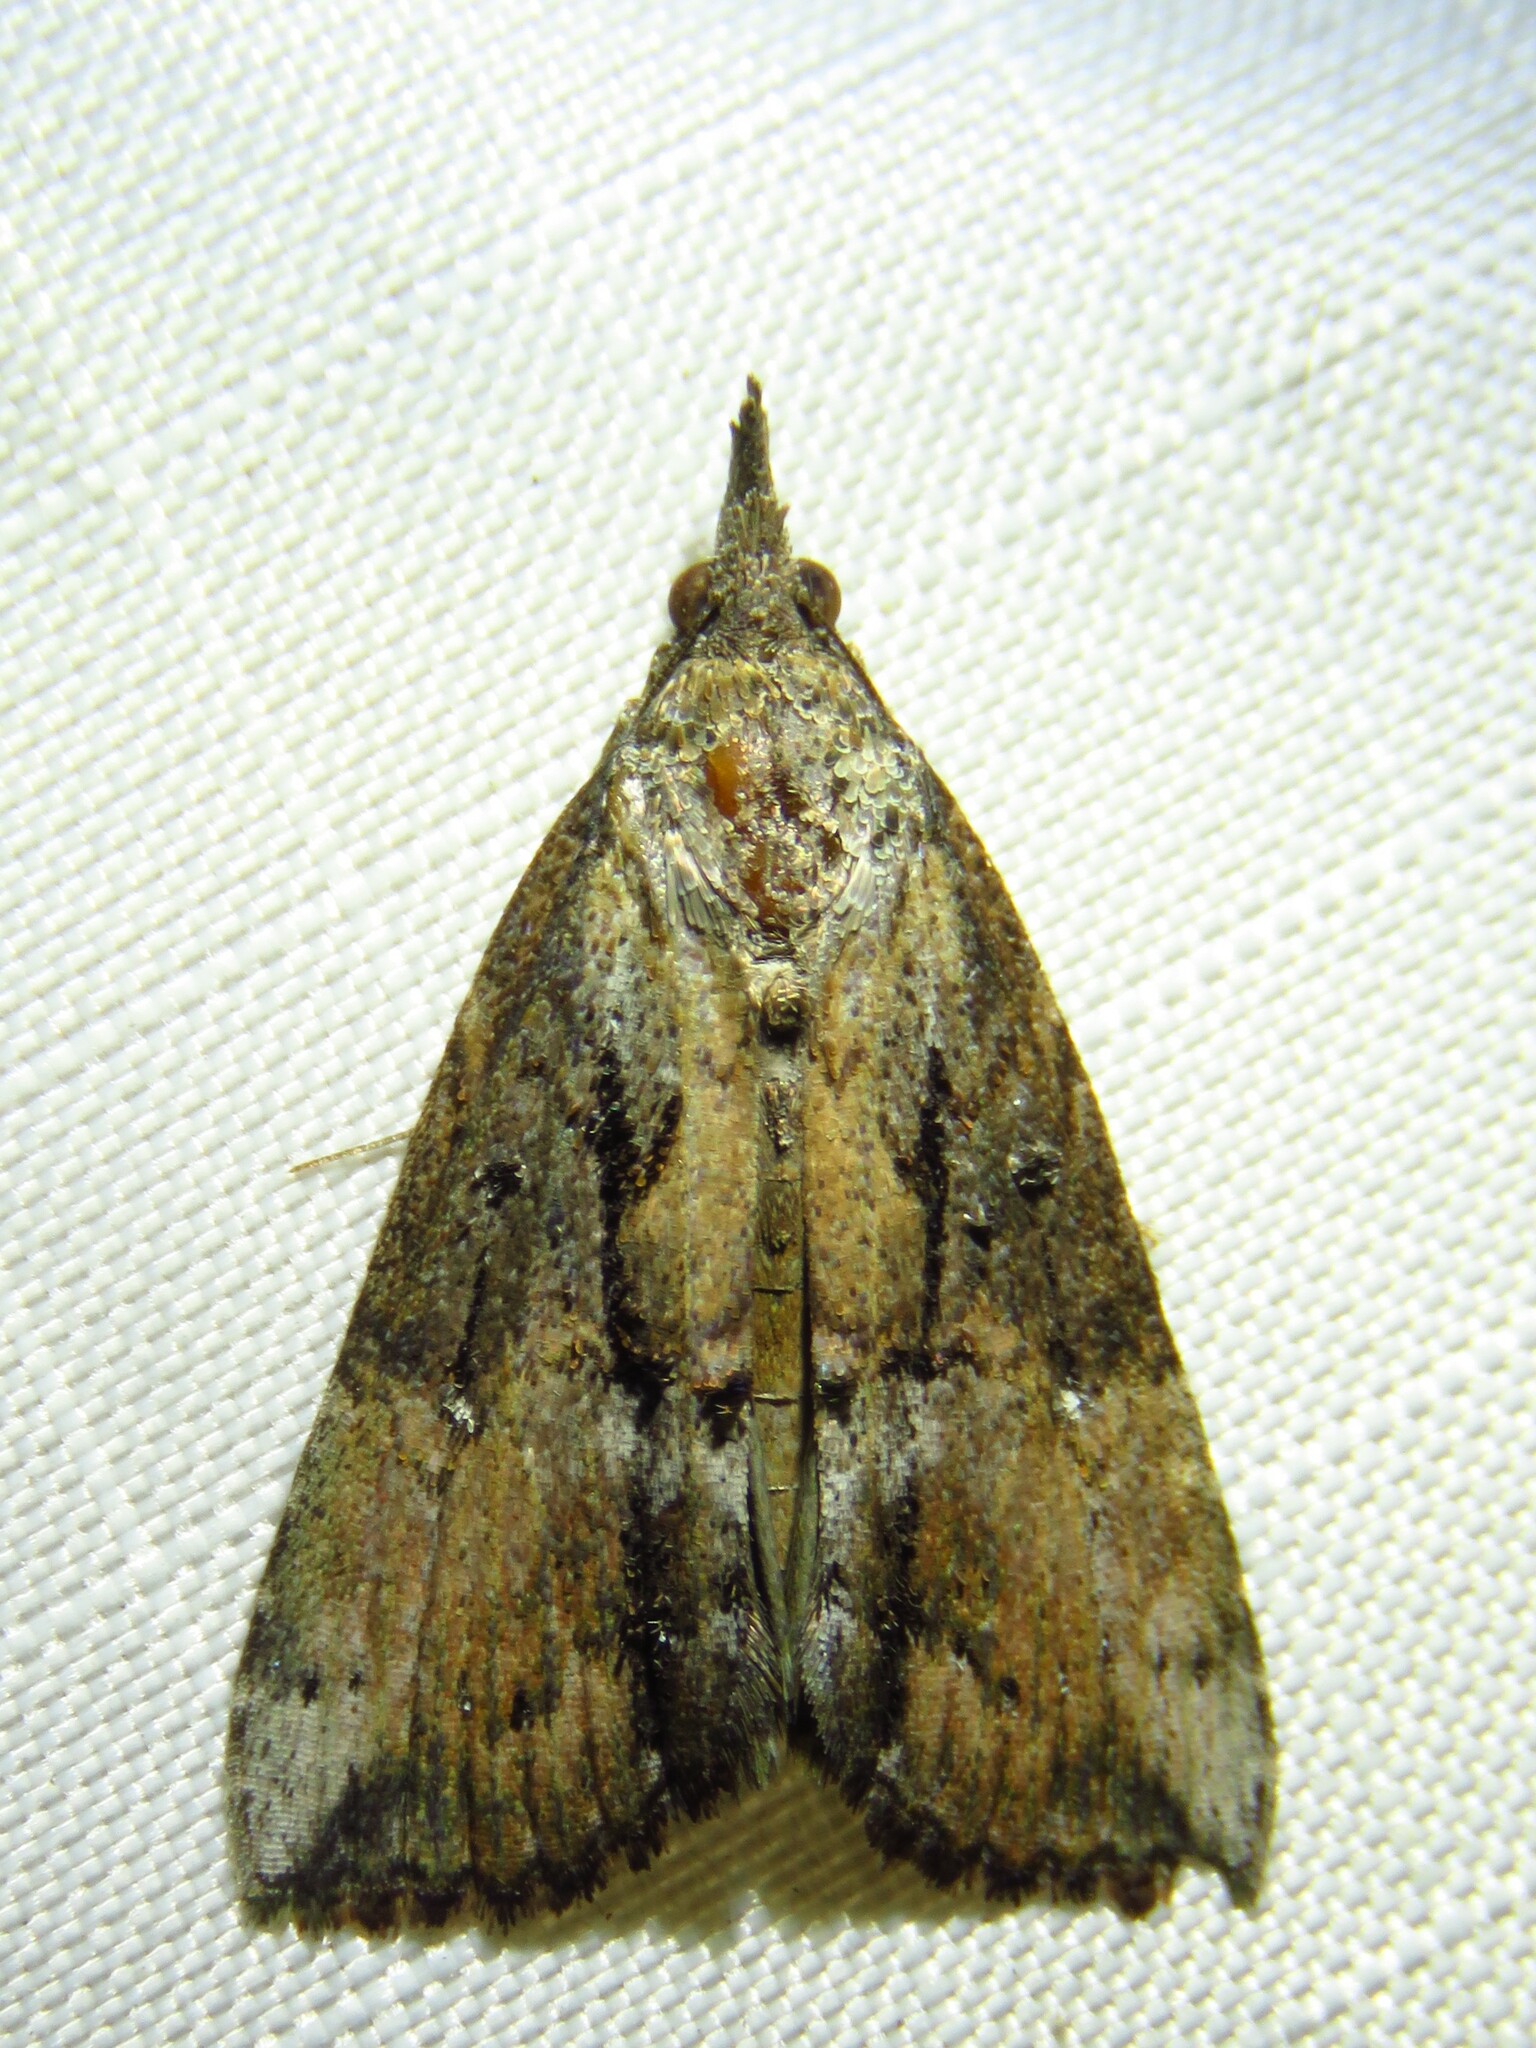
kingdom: Animalia
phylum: Arthropoda
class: Insecta
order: Lepidoptera
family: Erebidae
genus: Hypena
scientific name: Hypena scabra
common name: Green cloverworm
